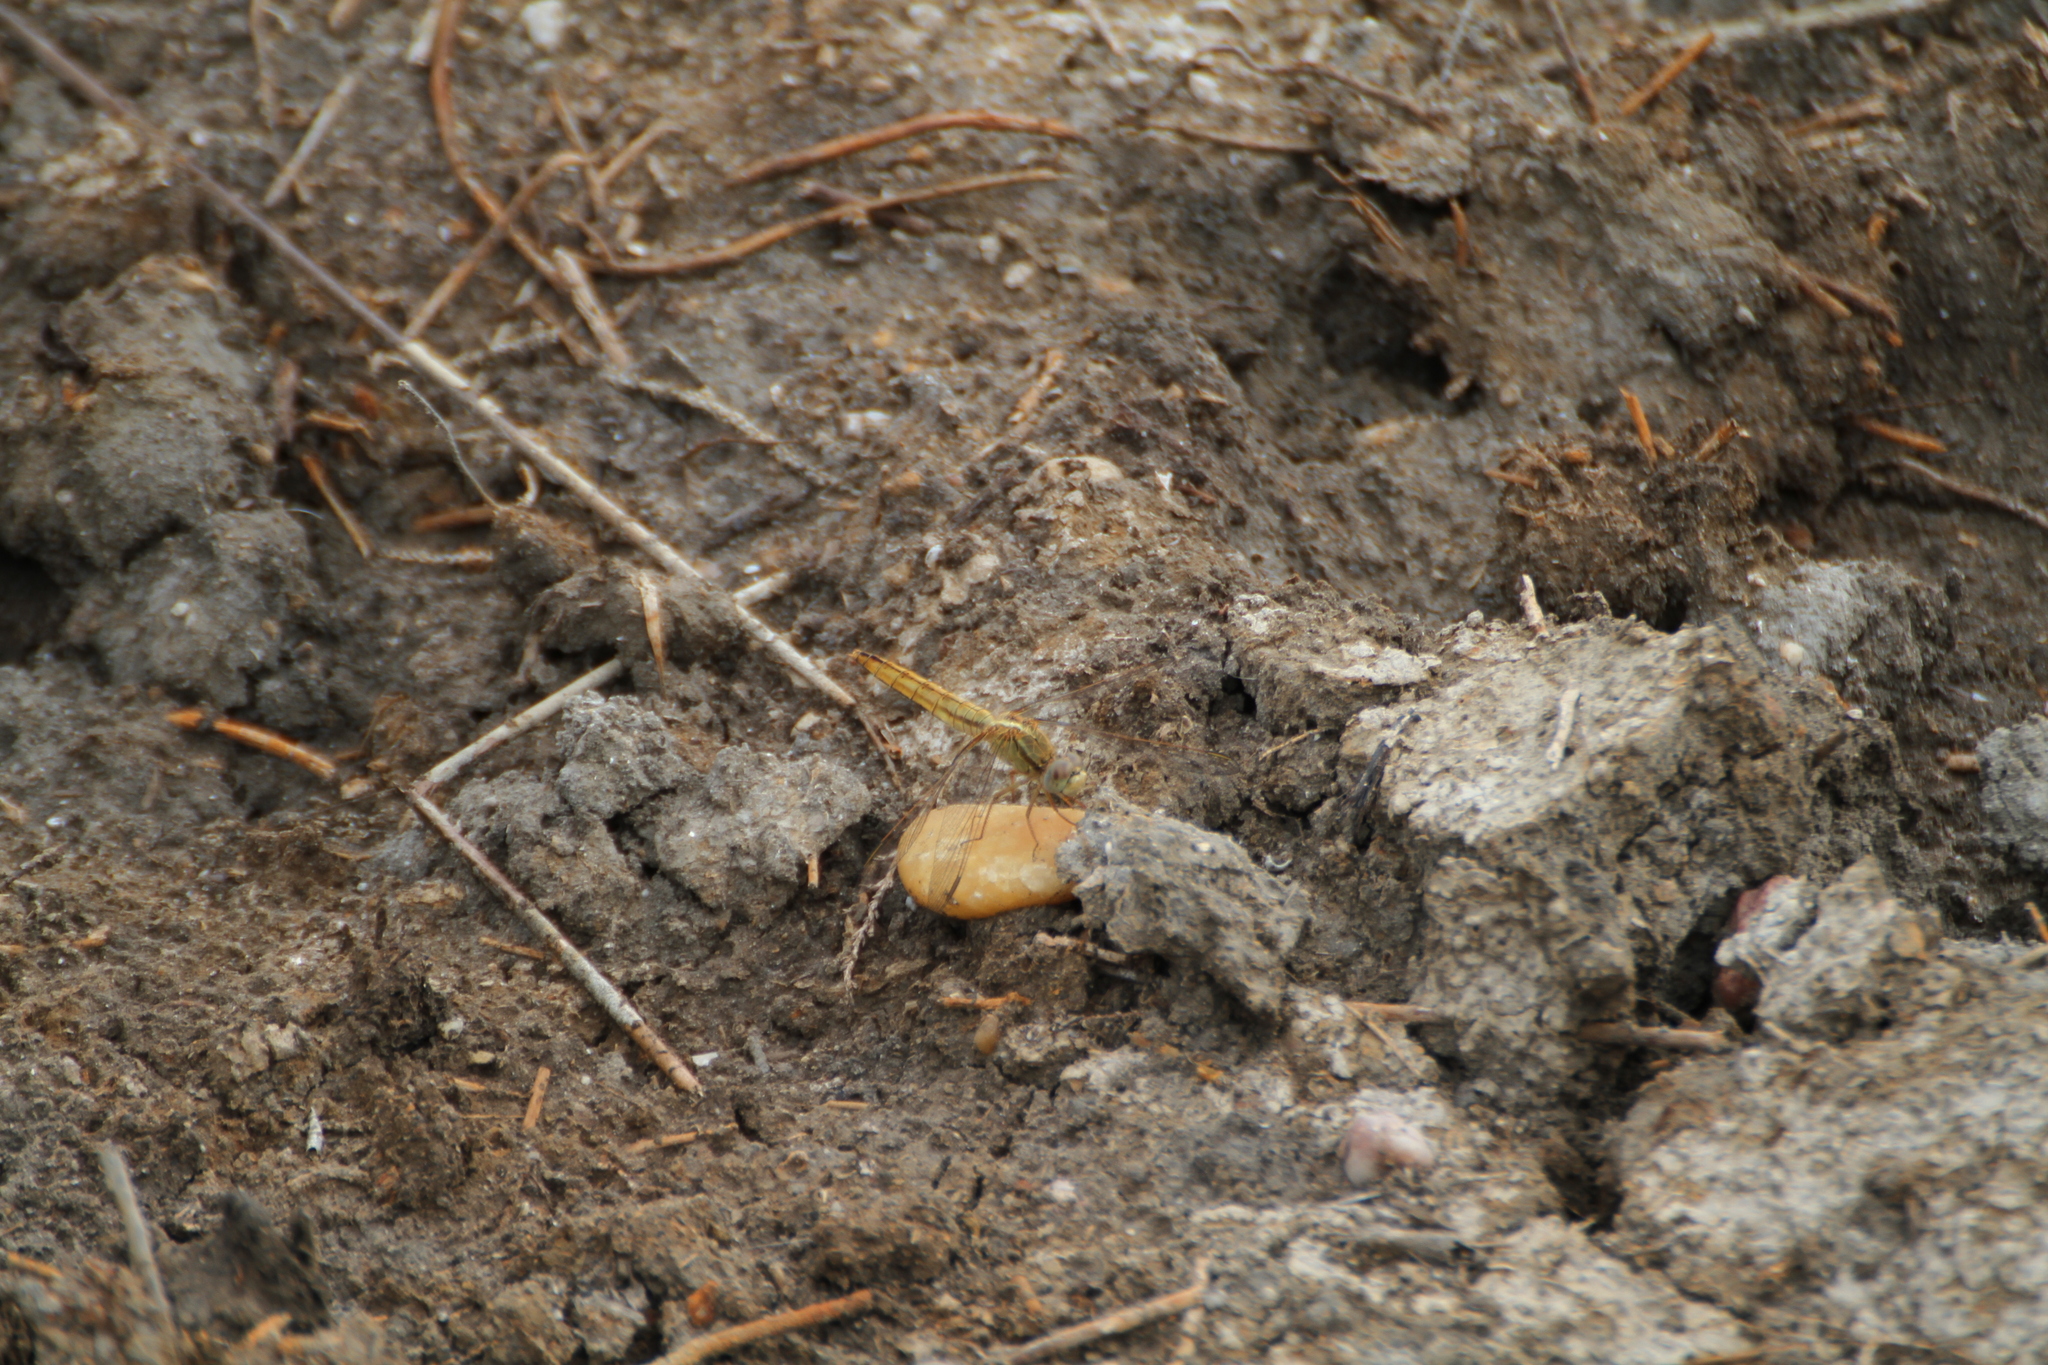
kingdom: Animalia
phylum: Arthropoda
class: Insecta
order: Odonata
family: Libellulidae
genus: Crocothemis
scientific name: Crocothemis erythraea
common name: Scarlet dragonfly
